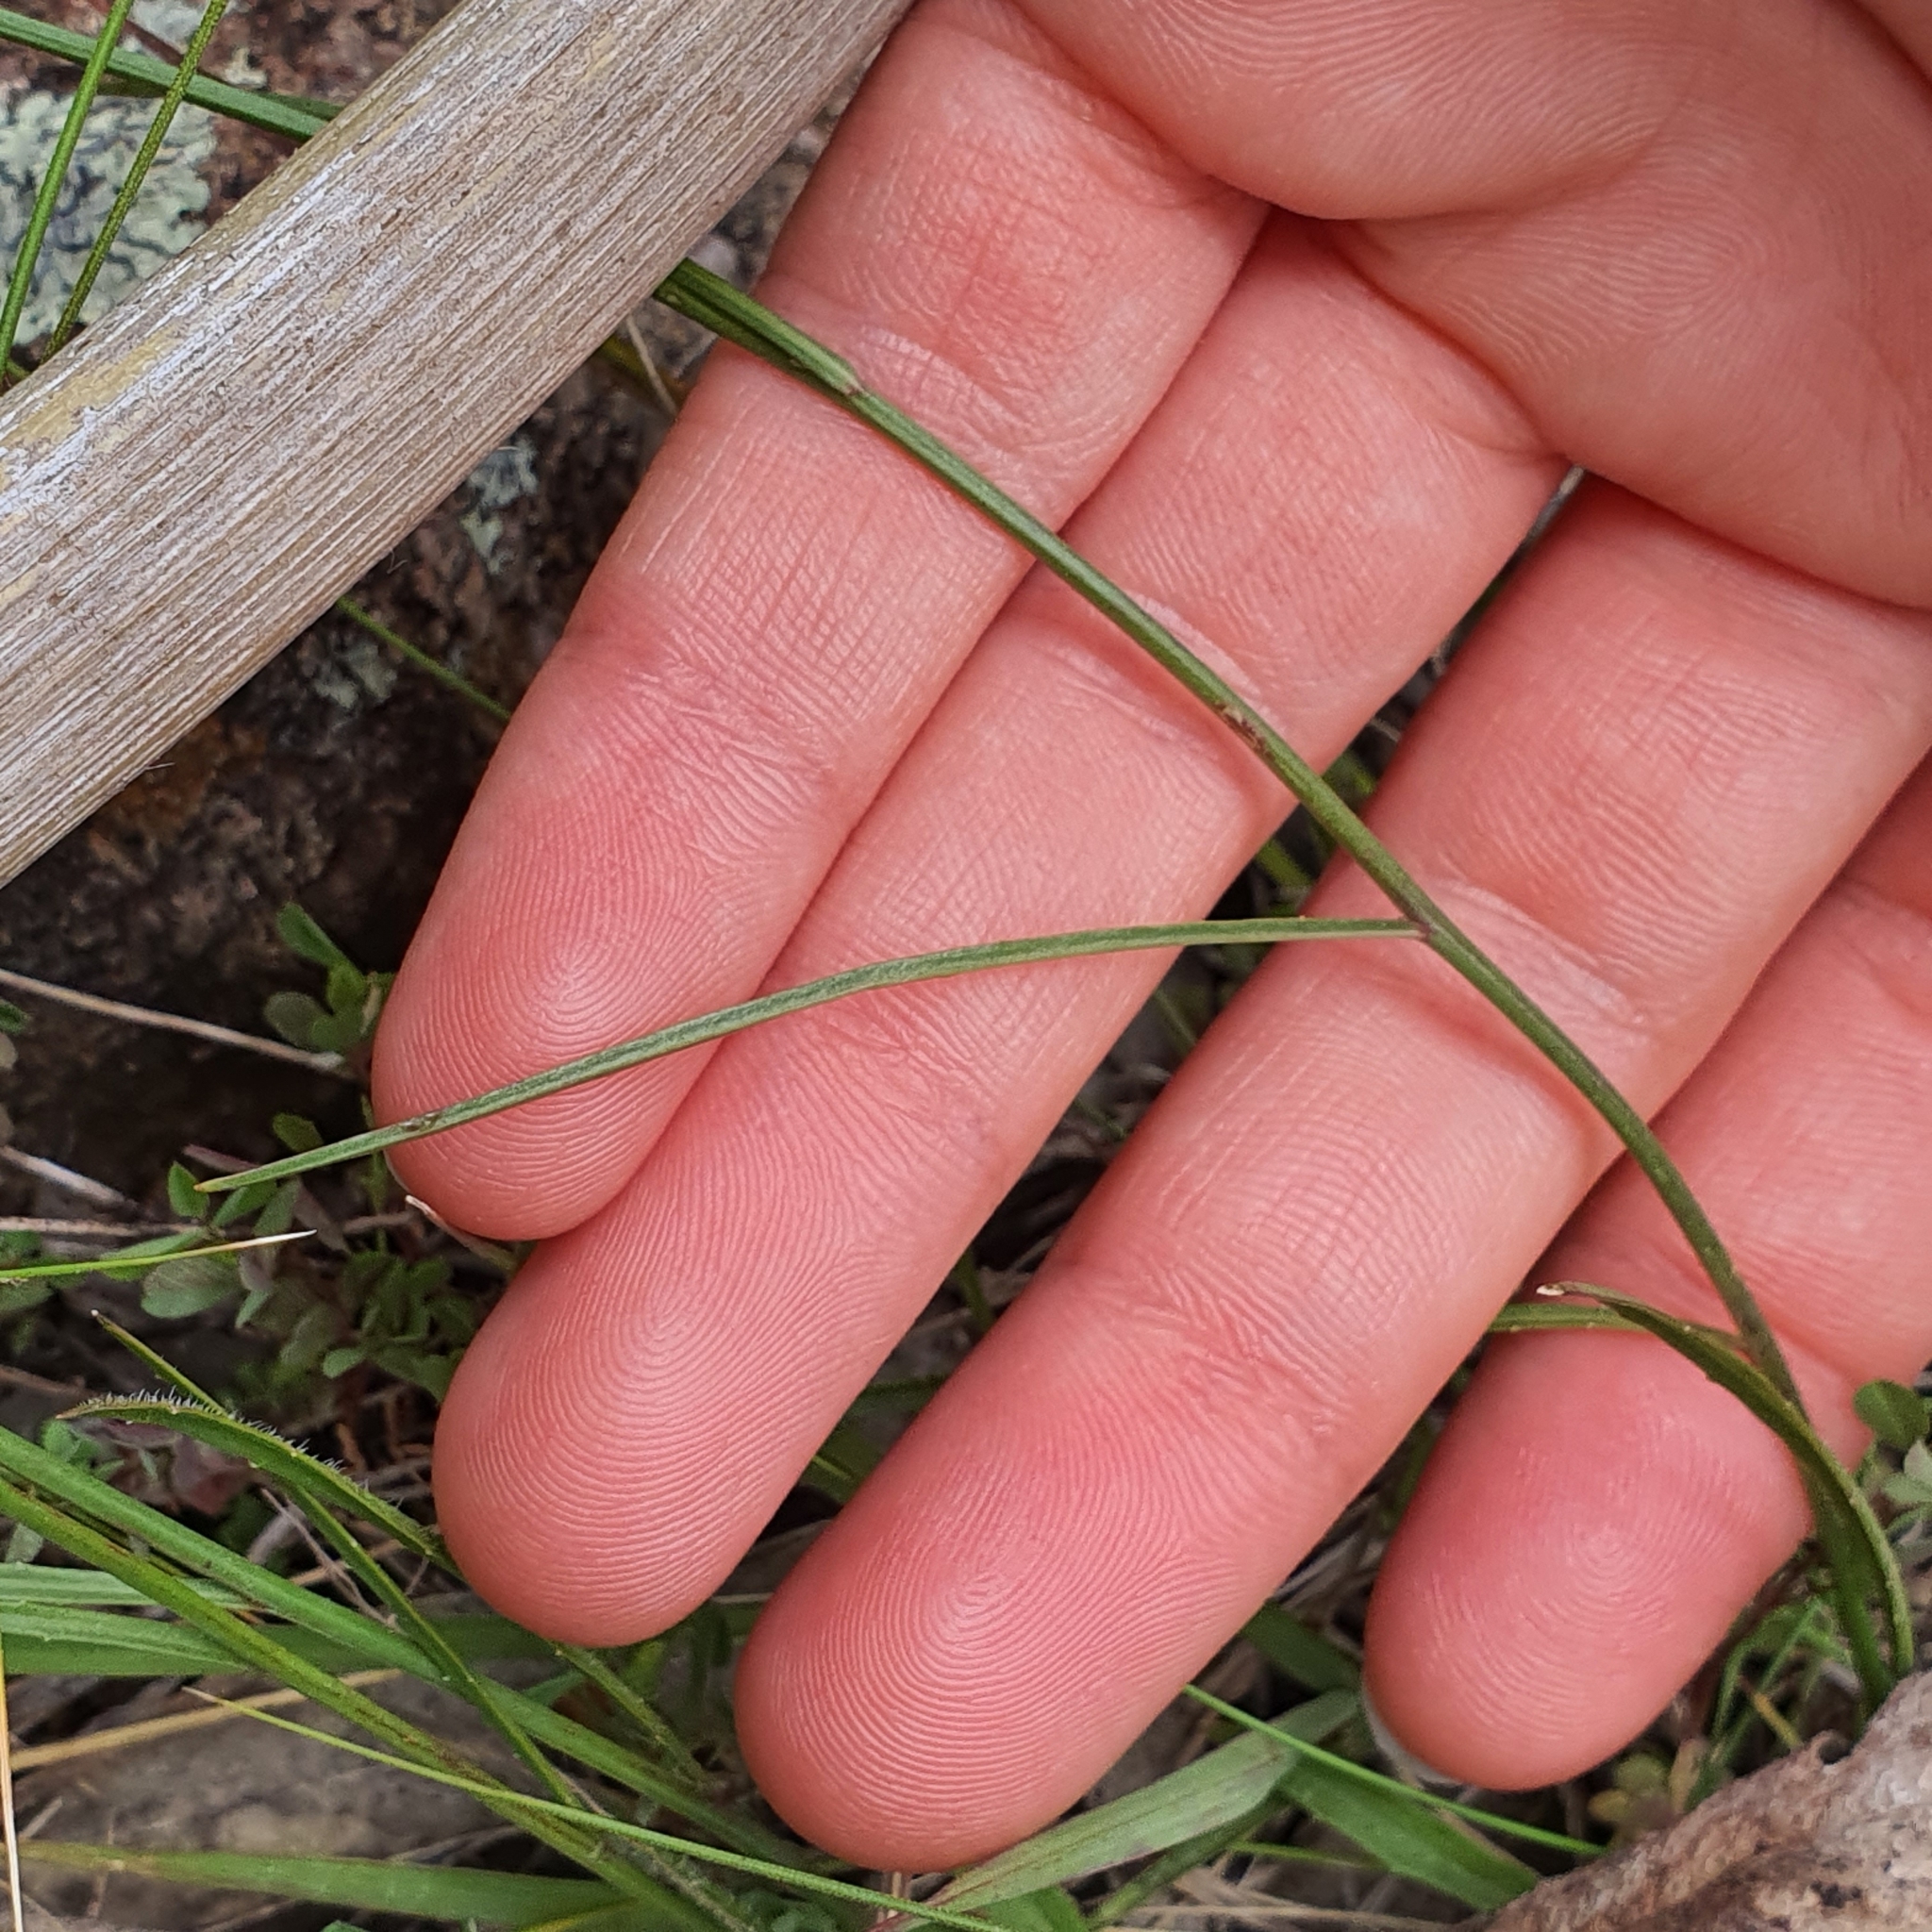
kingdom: Plantae
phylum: Tracheophyta
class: Magnoliopsida
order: Asterales
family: Campanulaceae
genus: Wahlenbergia
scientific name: Wahlenbergia
